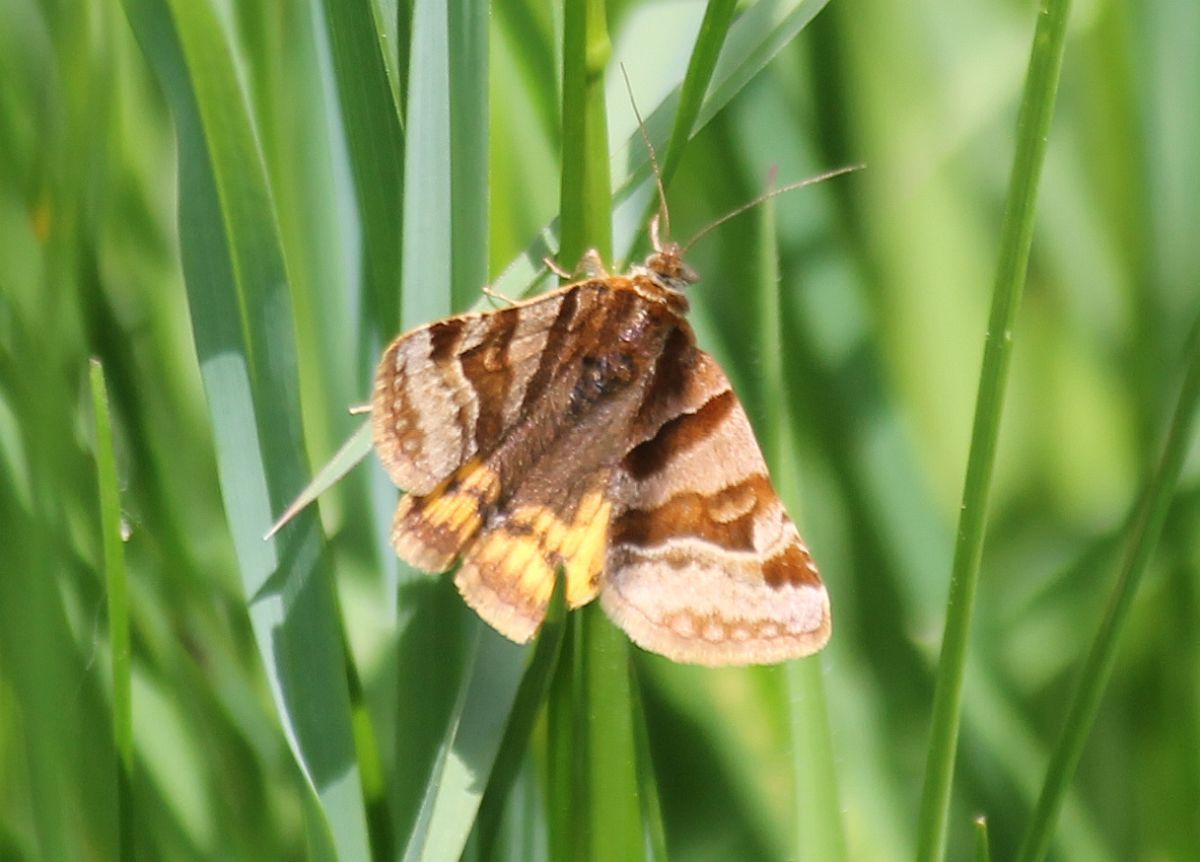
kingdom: Animalia
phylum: Arthropoda
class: Insecta
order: Lepidoptera
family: Erebidae
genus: Euclidia
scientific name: Euclidia glyphica
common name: Burnet companion
